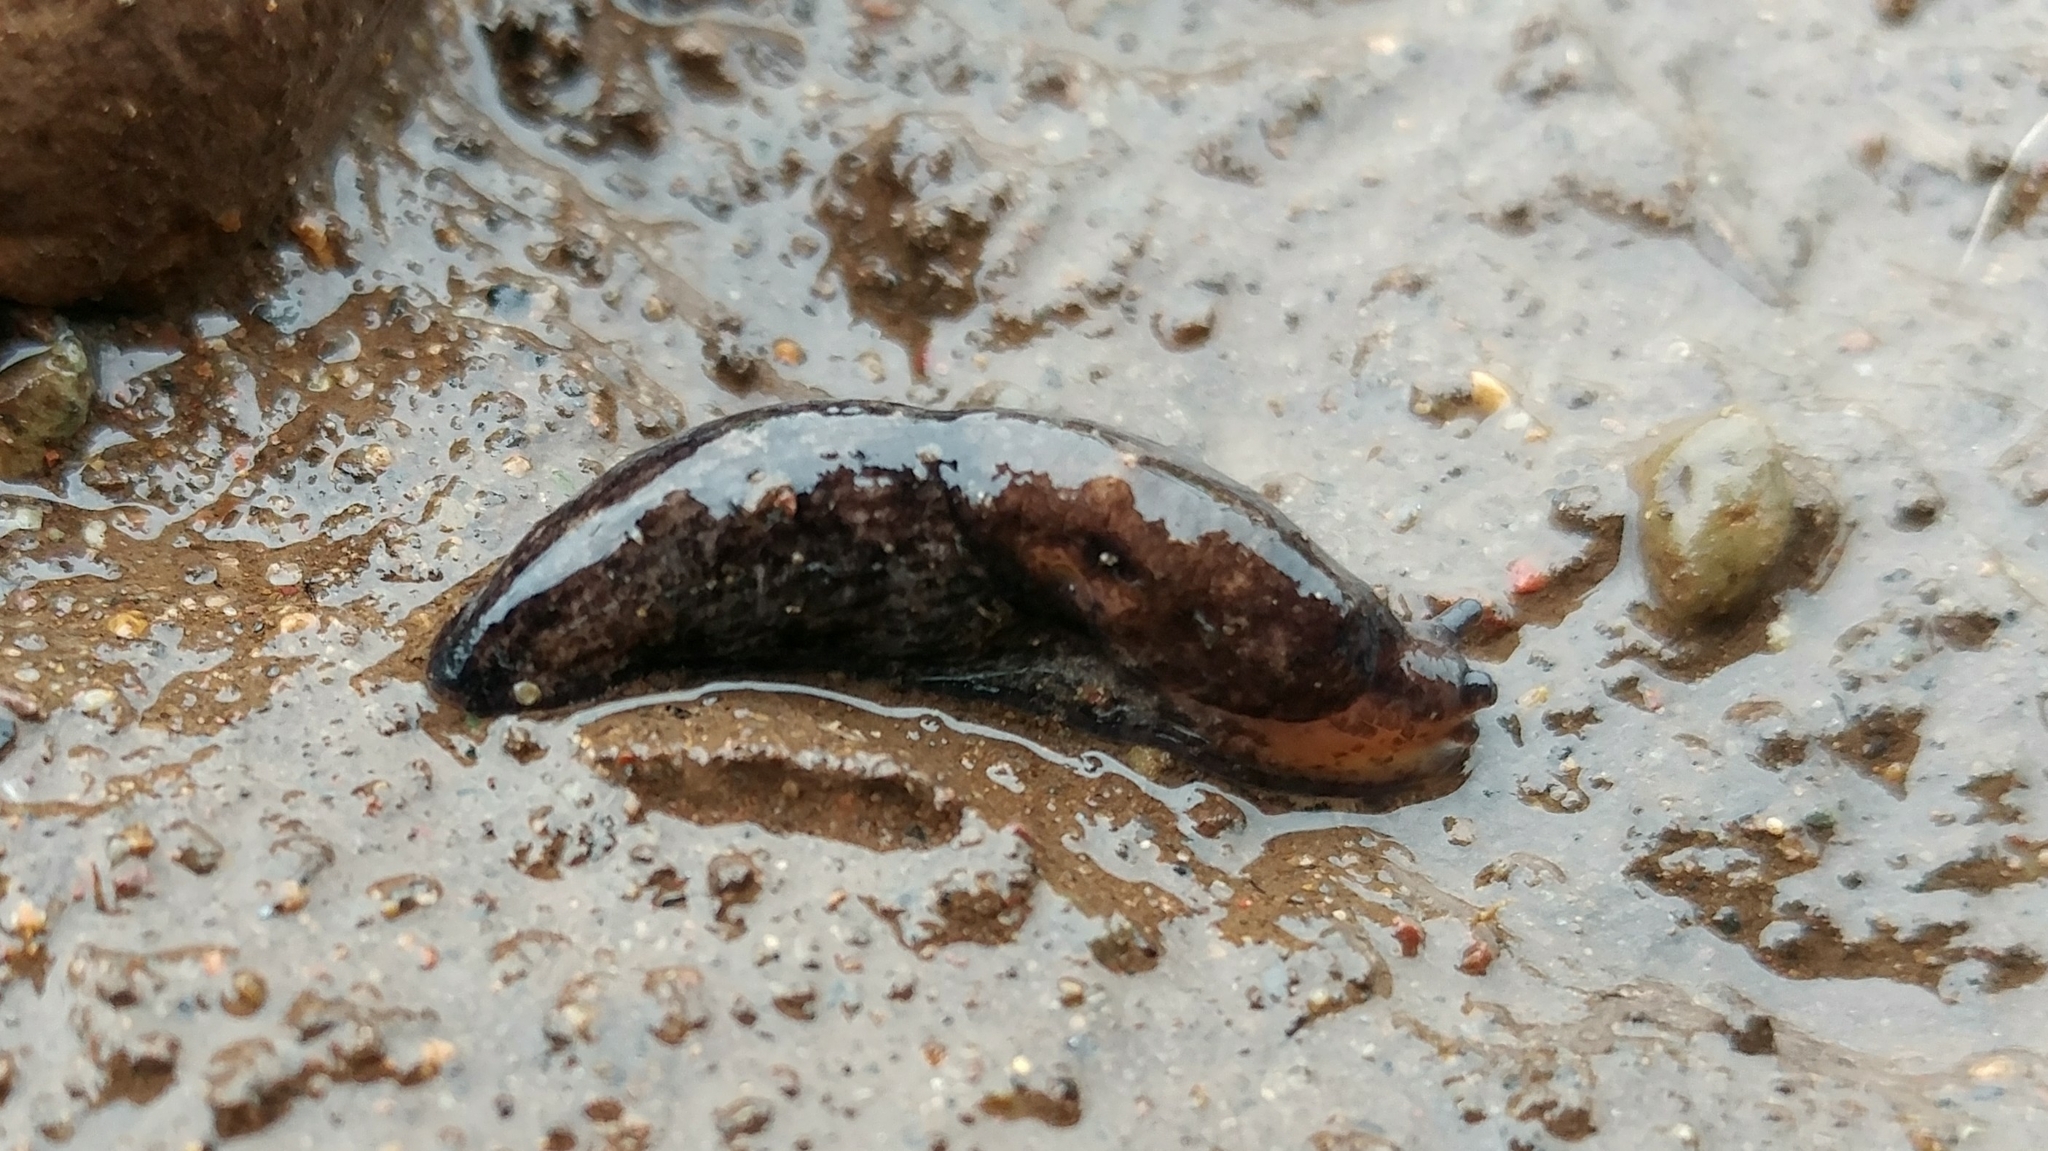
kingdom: Animalia
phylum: Mollusca
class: Gastropoda
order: Stylommatophora
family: Agriolimacidae
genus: Deroceras
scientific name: Deroceras reticulatum
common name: Gray field slug
